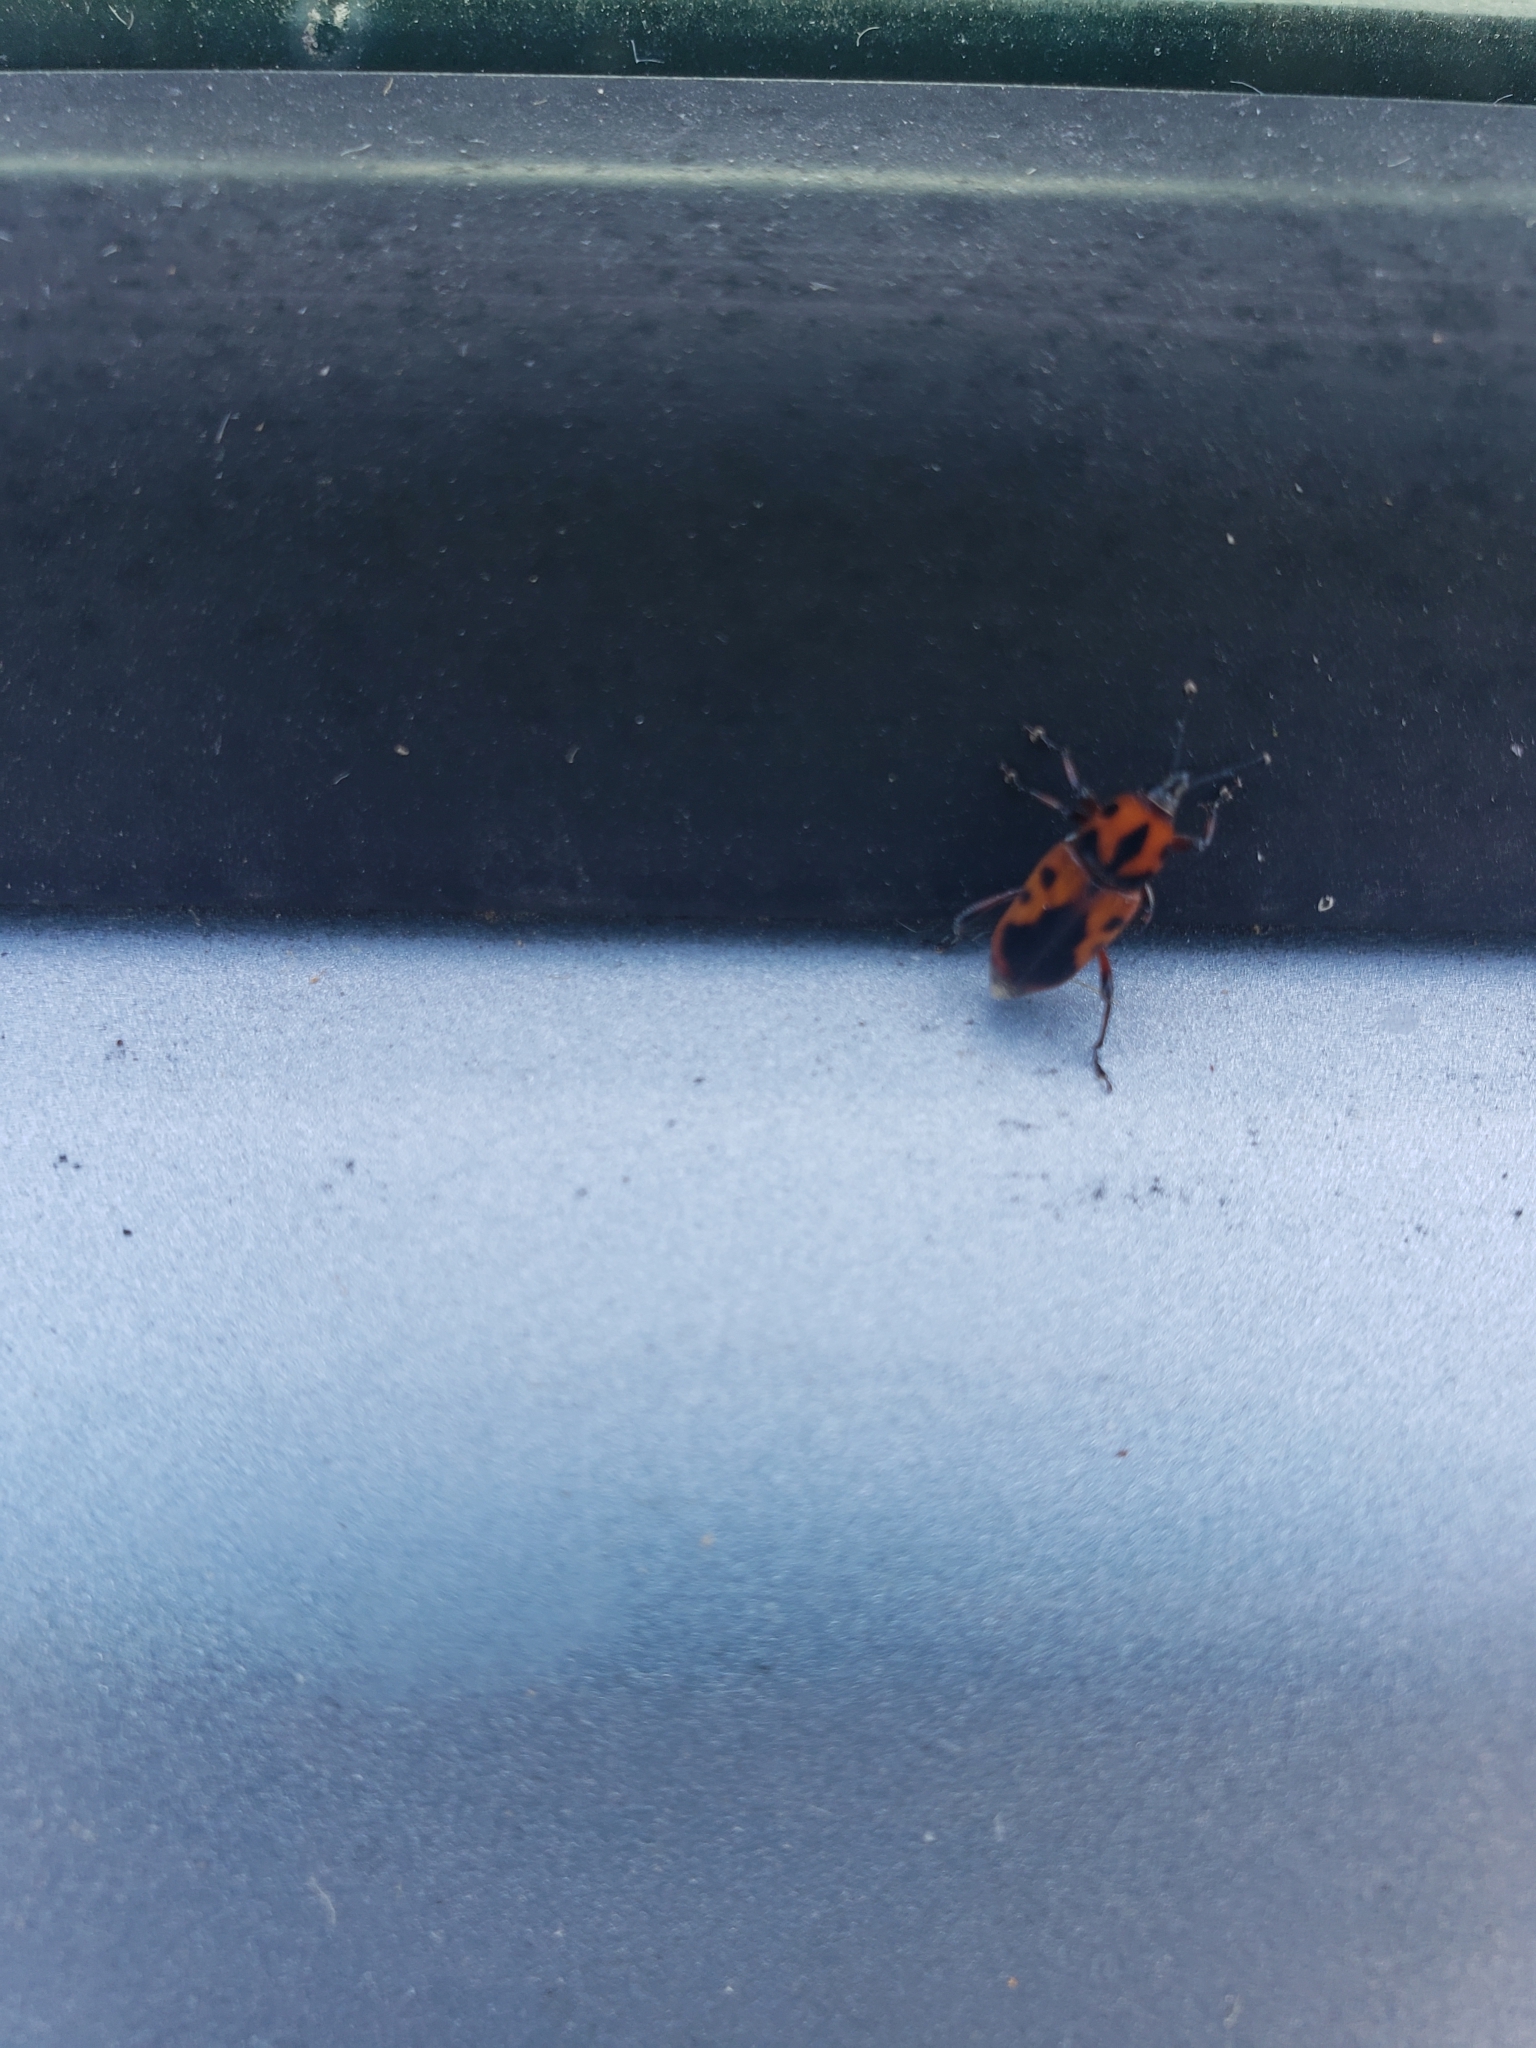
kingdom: Animalia
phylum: Arthropoda
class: Insecta
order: Coleoptera
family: Dryophthoridae
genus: Rhodobaenus
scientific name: Rhodobaenus quinquepunctatus
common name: Cocklebur weevil
